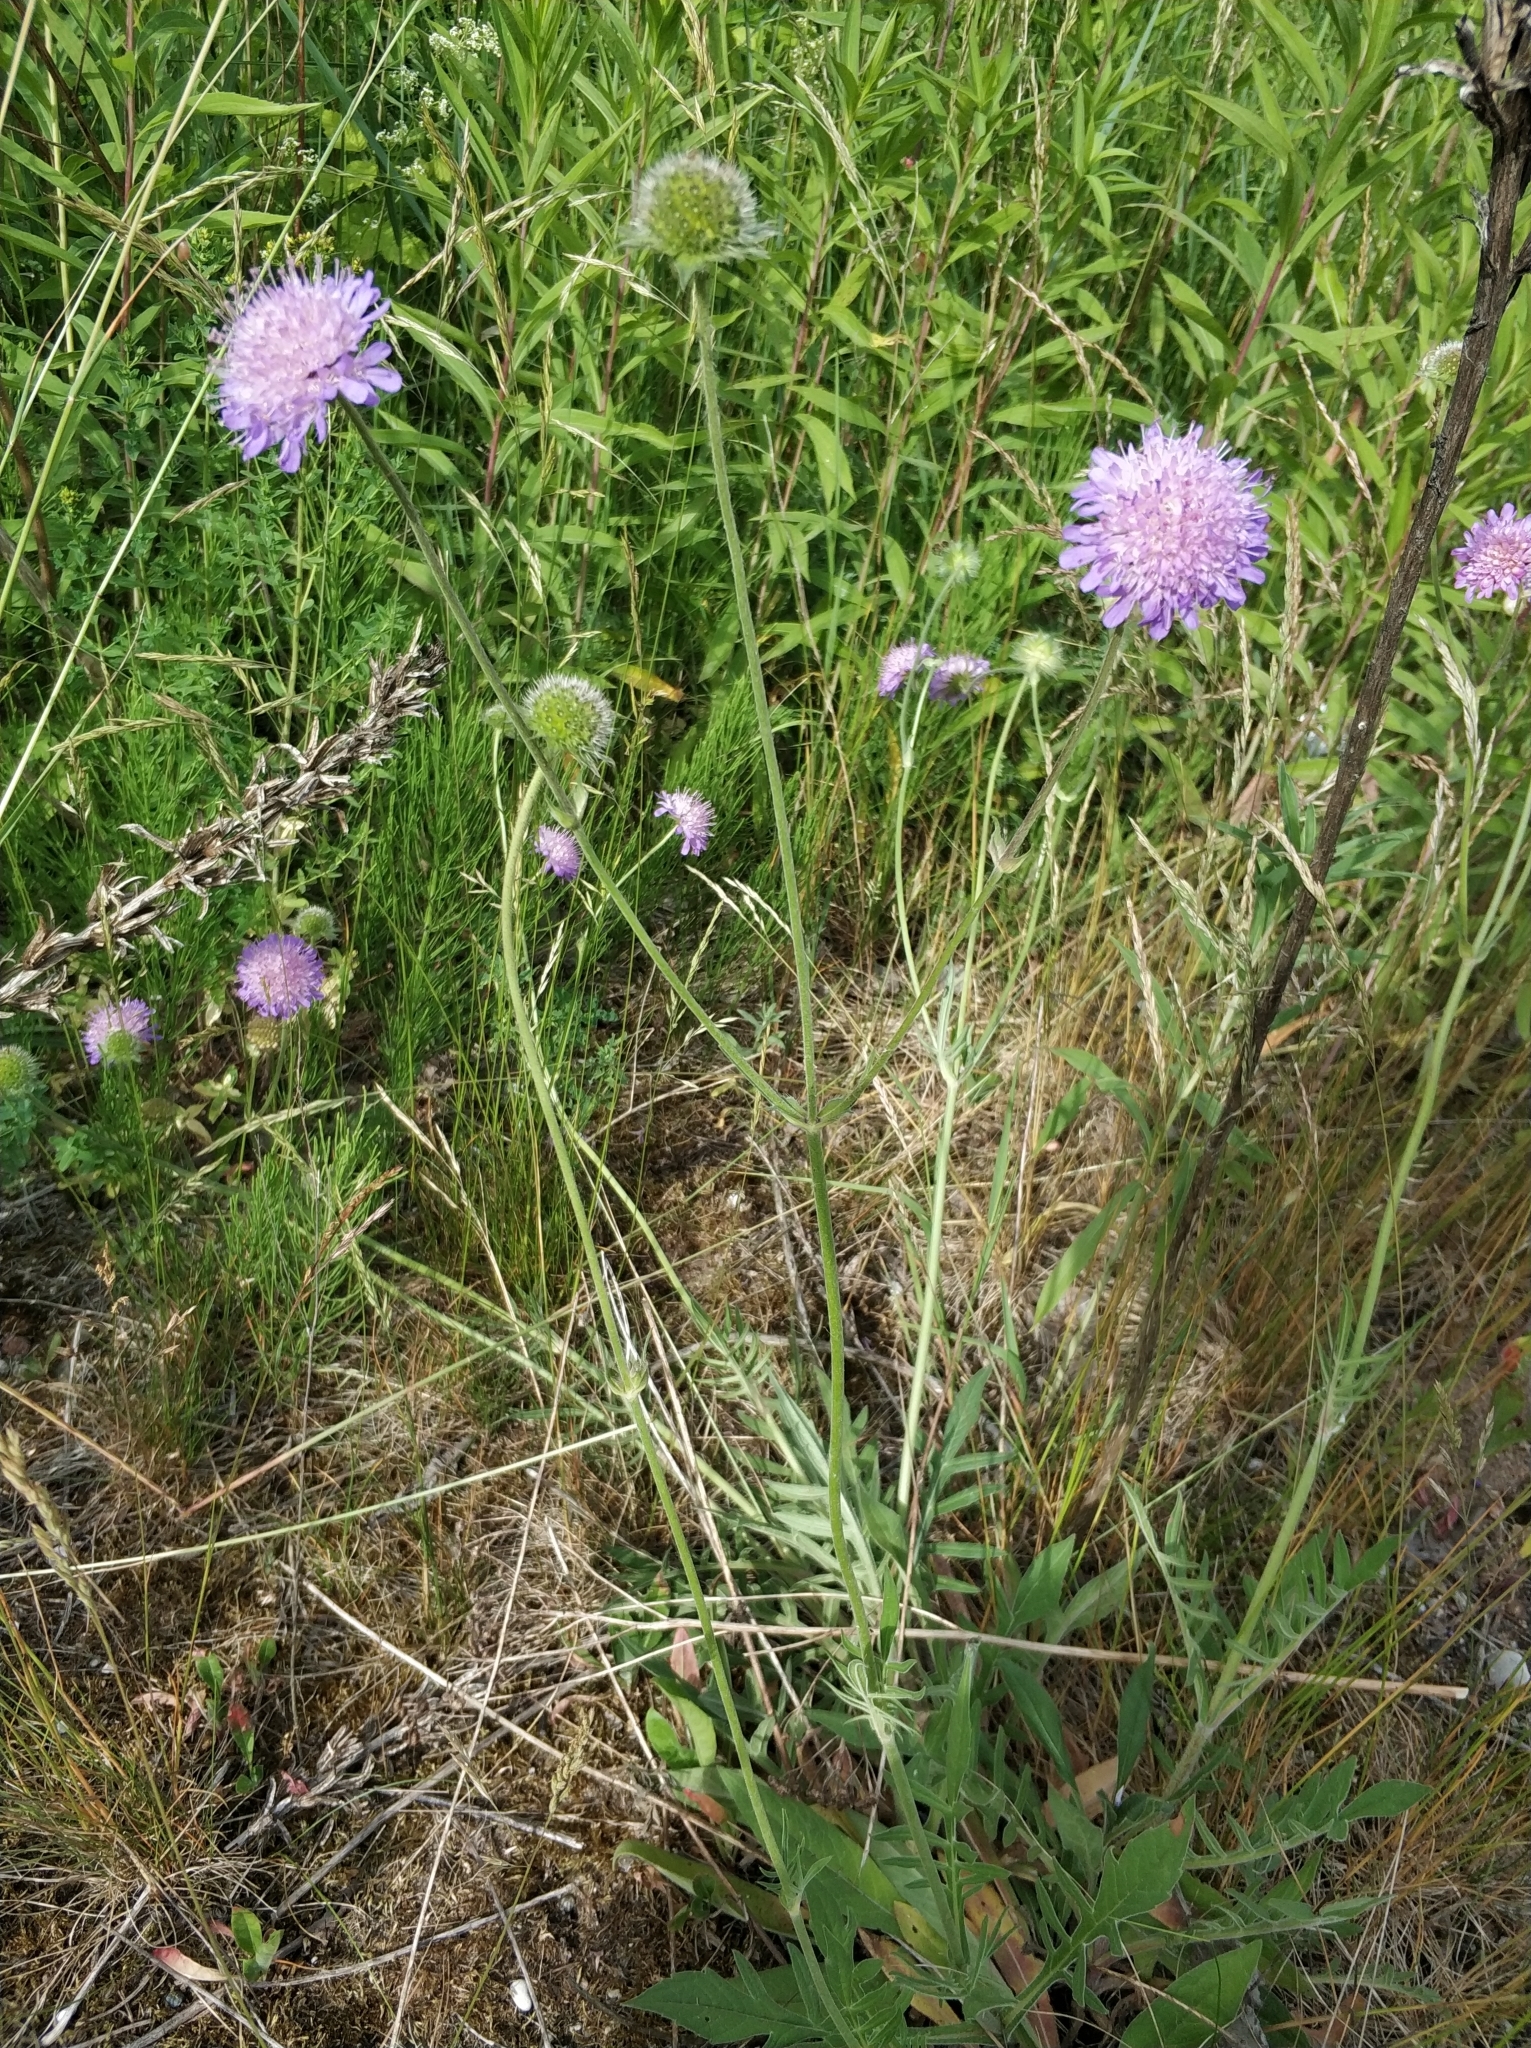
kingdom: Plantae
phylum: Tracheophyta
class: Magnoliopsida
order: Dipsacales
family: Caprifoliaceae
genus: Knautia
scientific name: Knautia arvensis
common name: Field scabiosa
